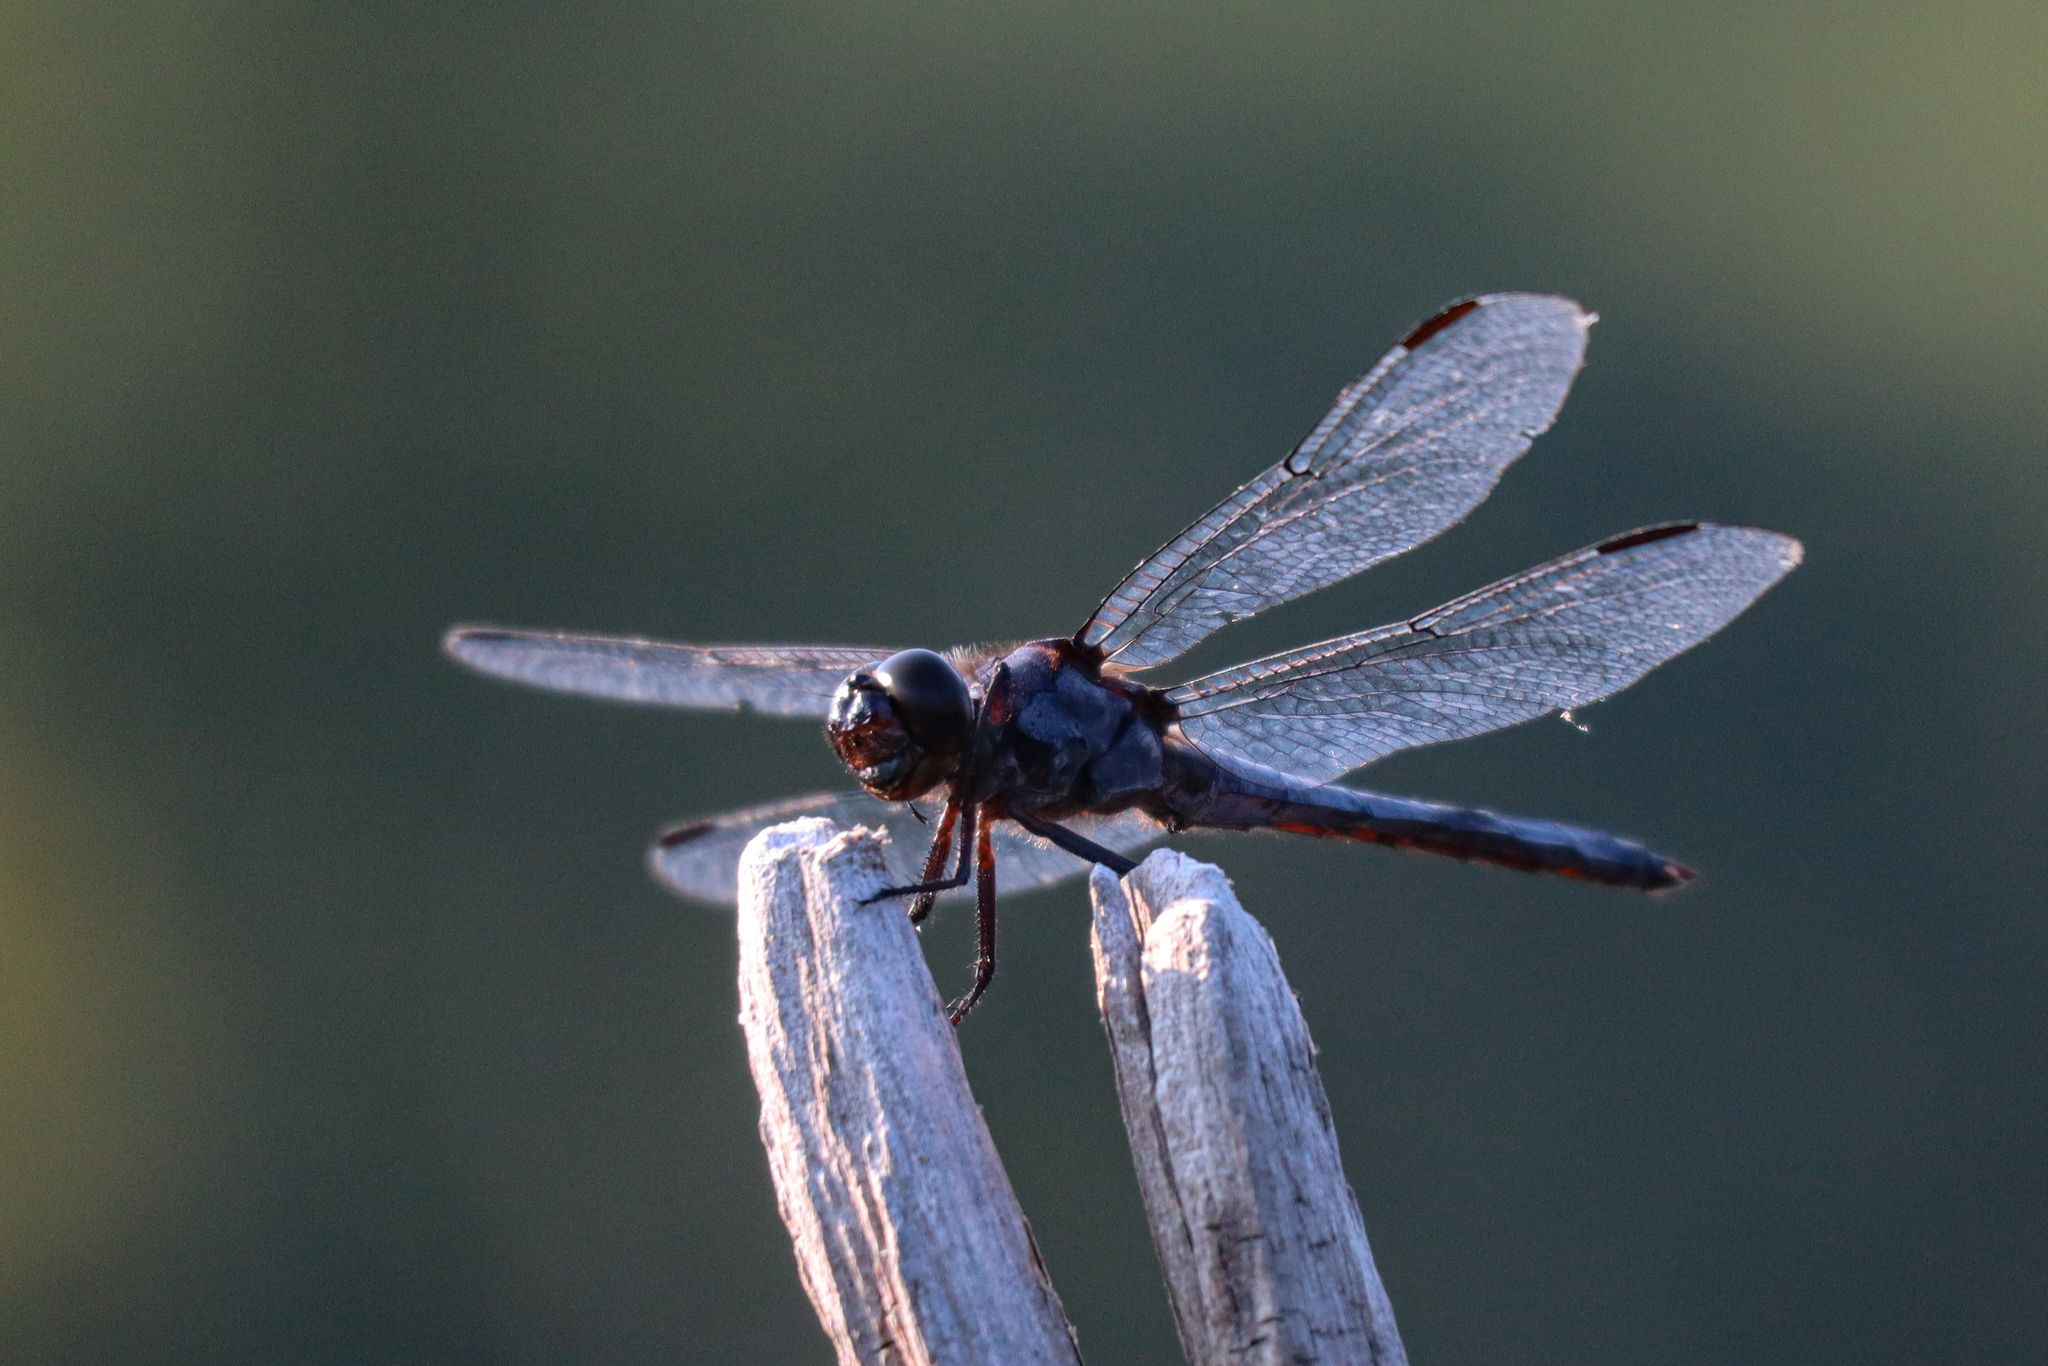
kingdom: Animalia
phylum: Arthropoda
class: Insecta
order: Odonata
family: Libellulidae
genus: Libellula
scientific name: Libellula incesta
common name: Slaty skimmer
